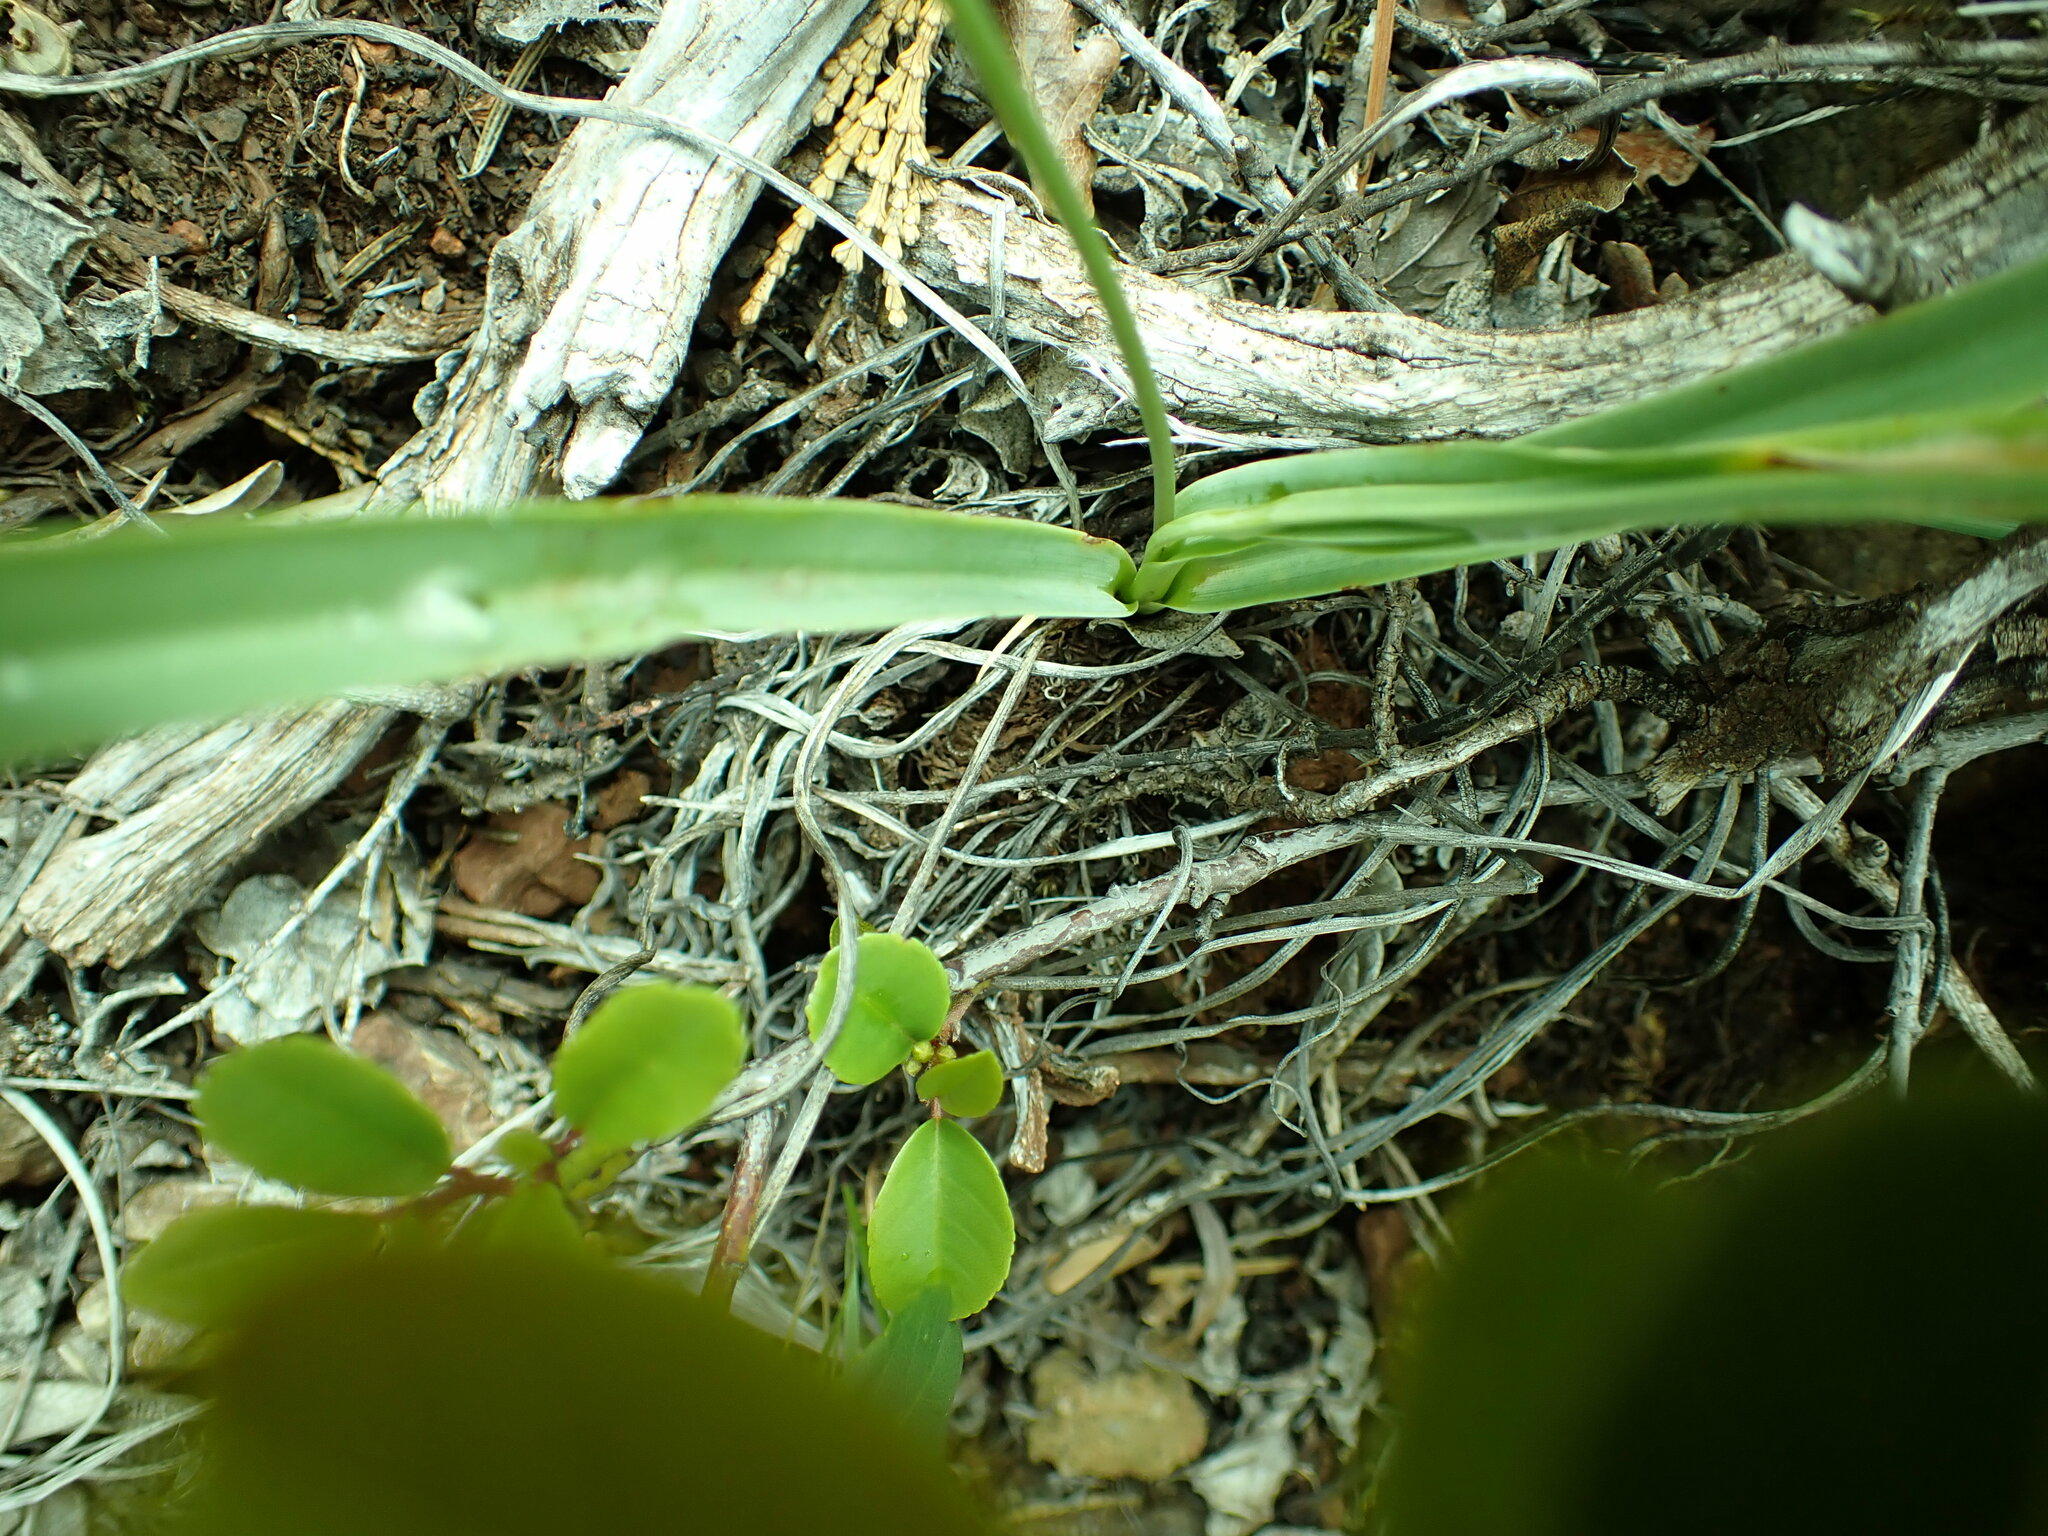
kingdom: Plantae
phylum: Tracheophyta
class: Liliopsida
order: Asparagales
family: Asparagaceae
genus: Hastingsia
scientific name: Hastingsia serpentinicola
